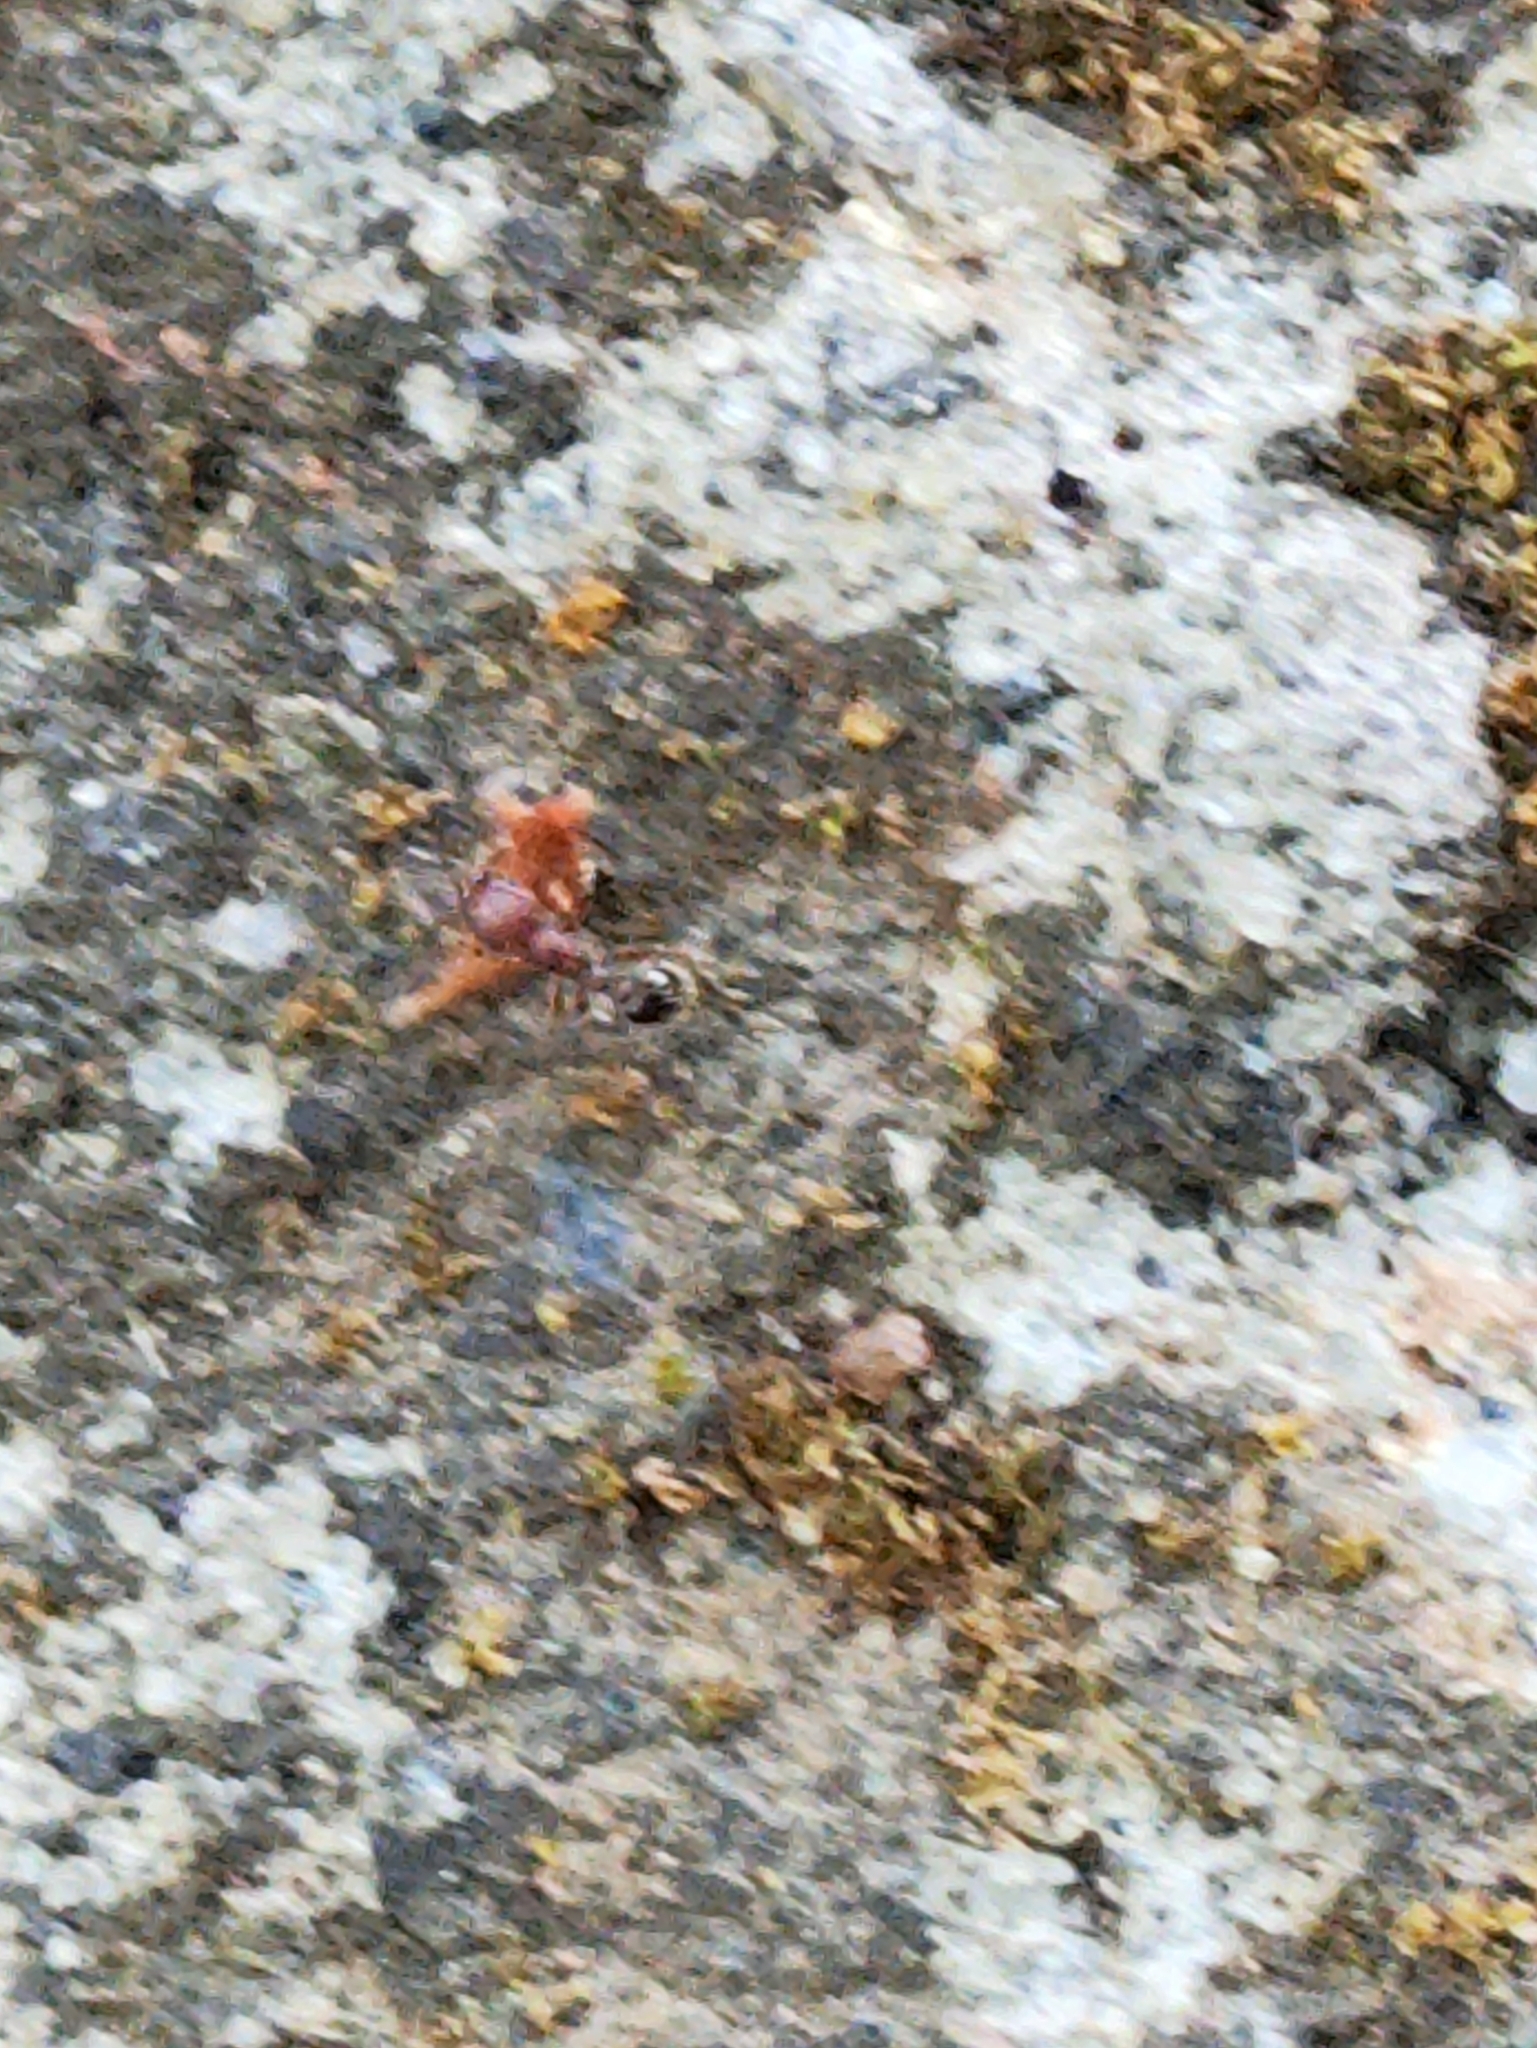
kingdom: Animalia
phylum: Arthropoda
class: Insecta
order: Hymenoptera
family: Formicidae
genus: Tetramorium
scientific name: Tetramorium lanuginosum
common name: Ant
